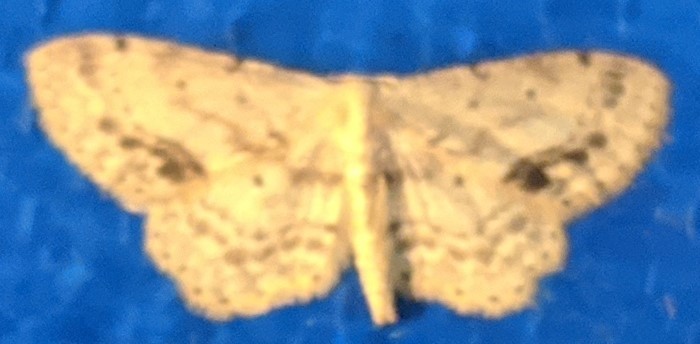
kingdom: Animalia
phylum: Arthropoda
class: Insecta
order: Lepidoptera
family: Geometridae
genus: Idaea
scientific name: Idaea dimidiata
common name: Single-dotted wave
